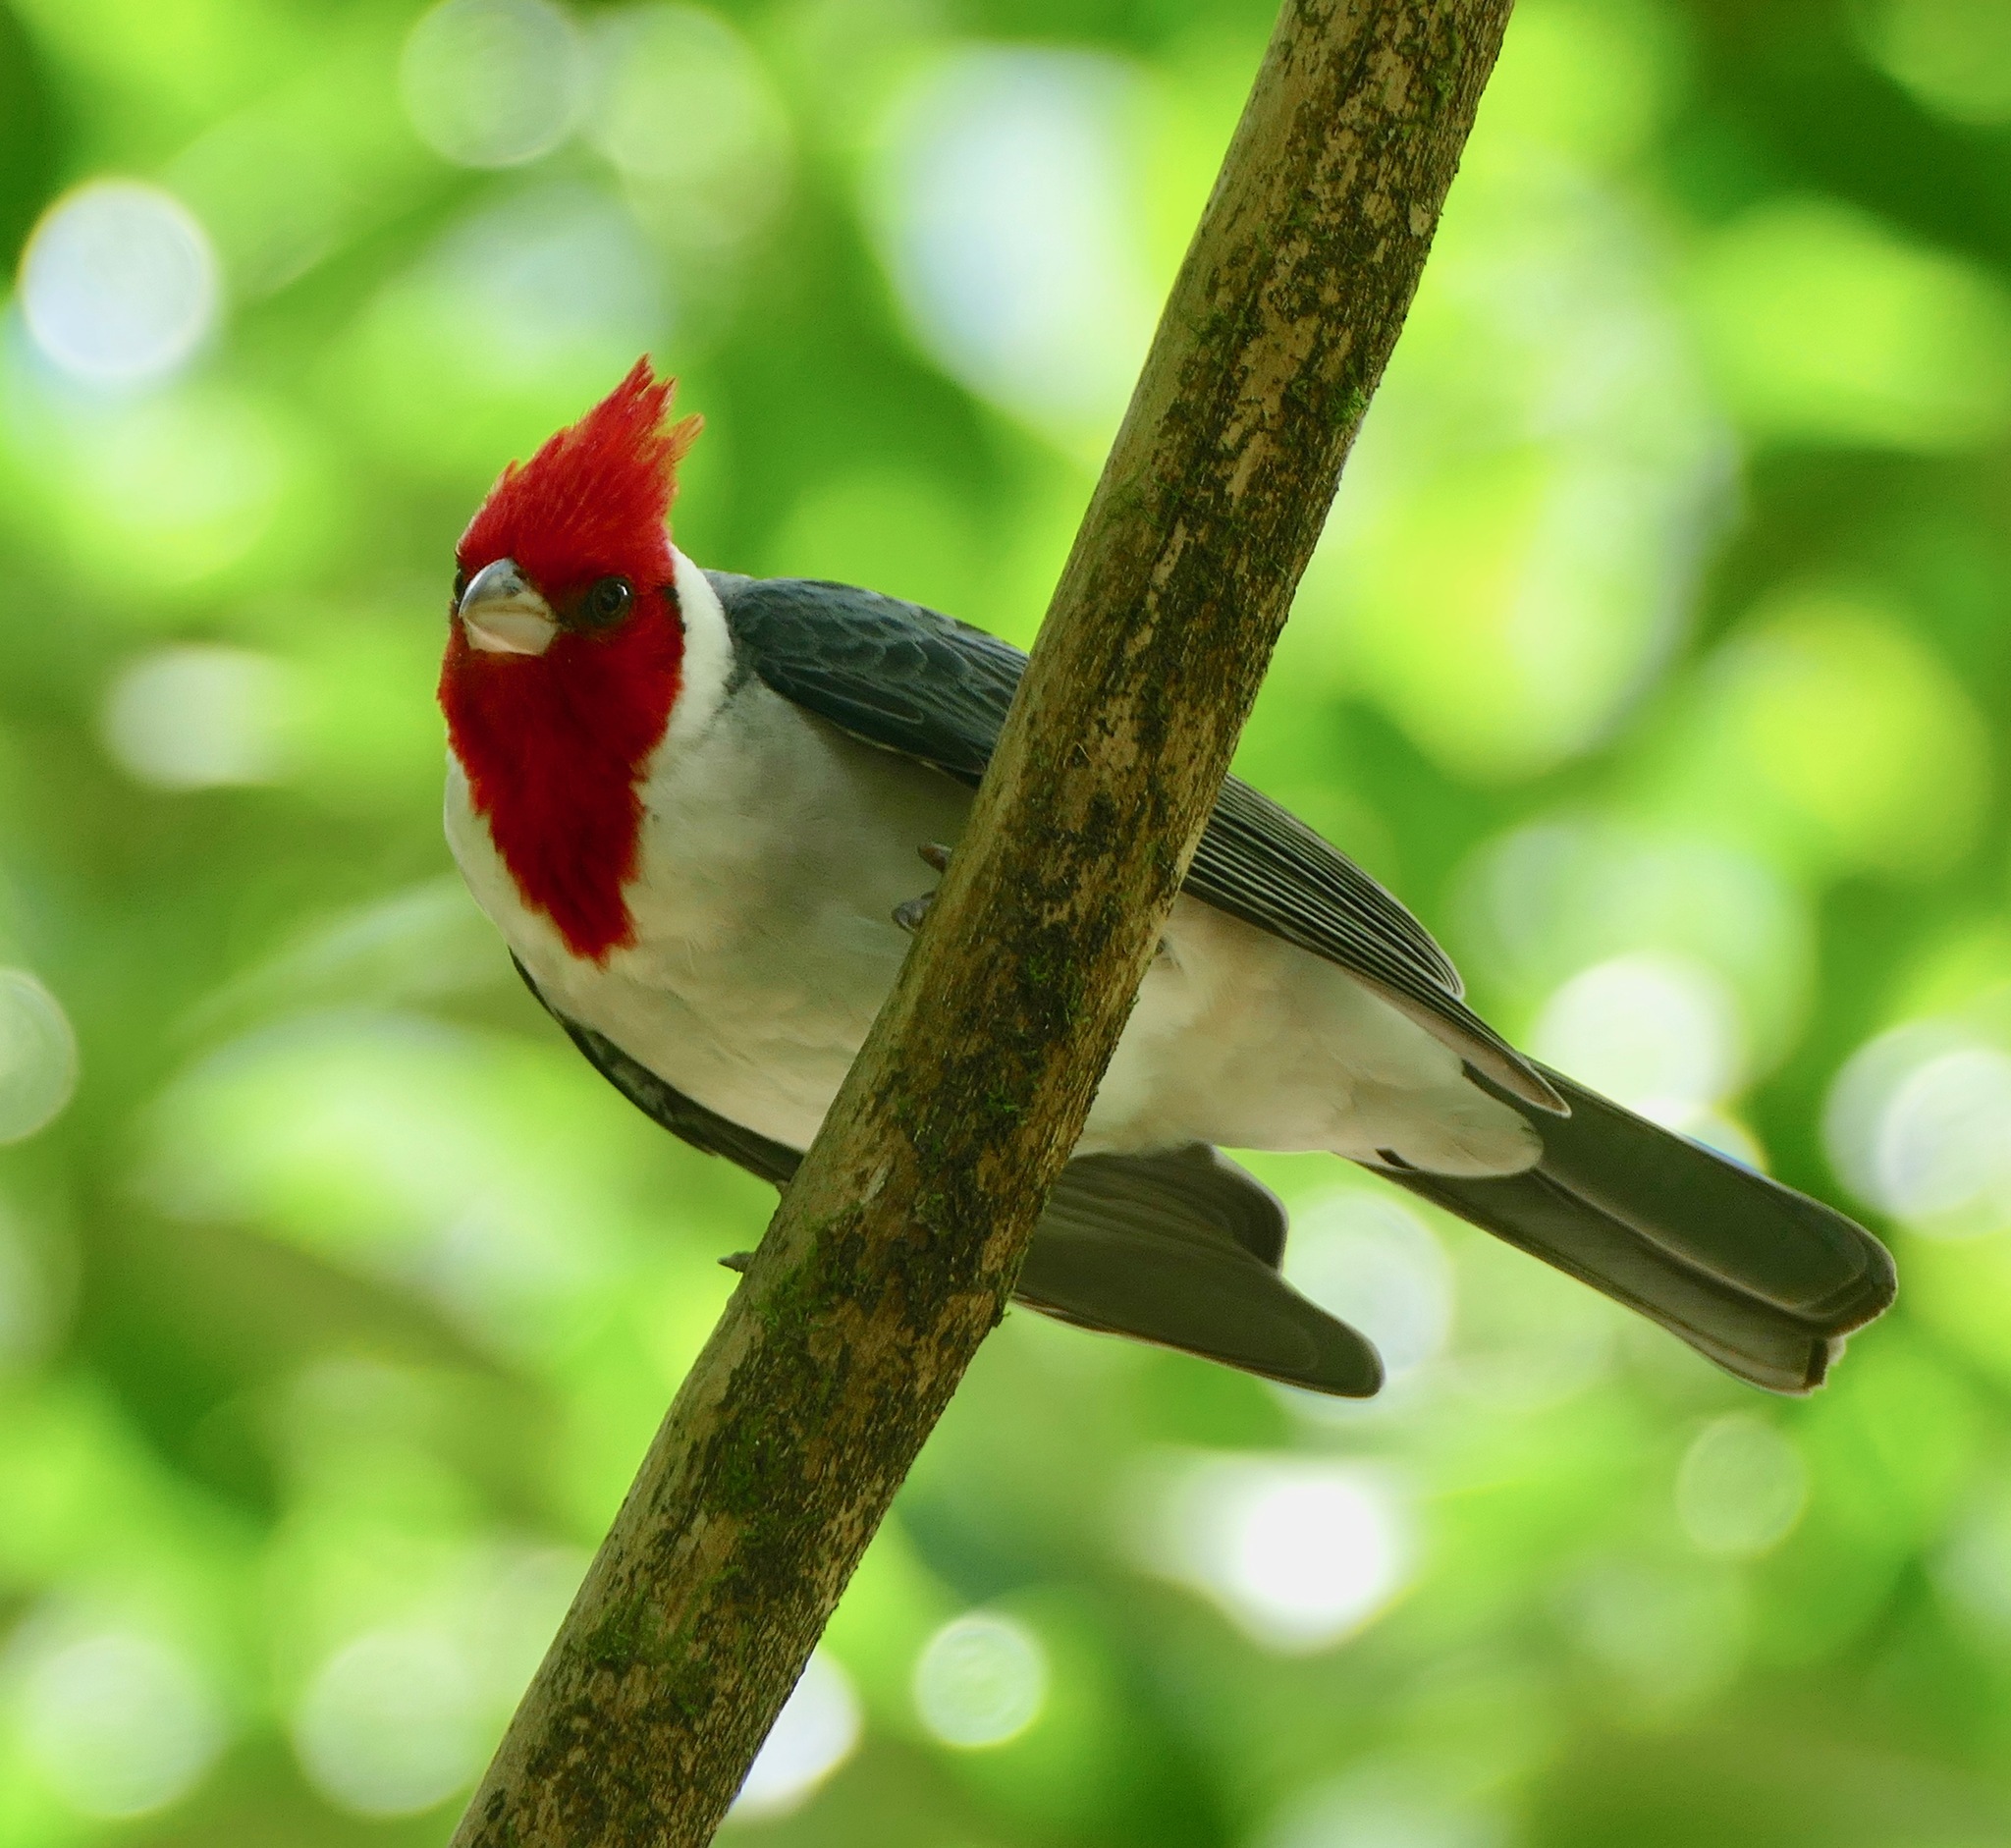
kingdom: Animalia
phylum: Chordata
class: Aves
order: Passeriformes
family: Thraupidae
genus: Paroaria
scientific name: Paroaria coronata
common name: Red-crested cardinal
